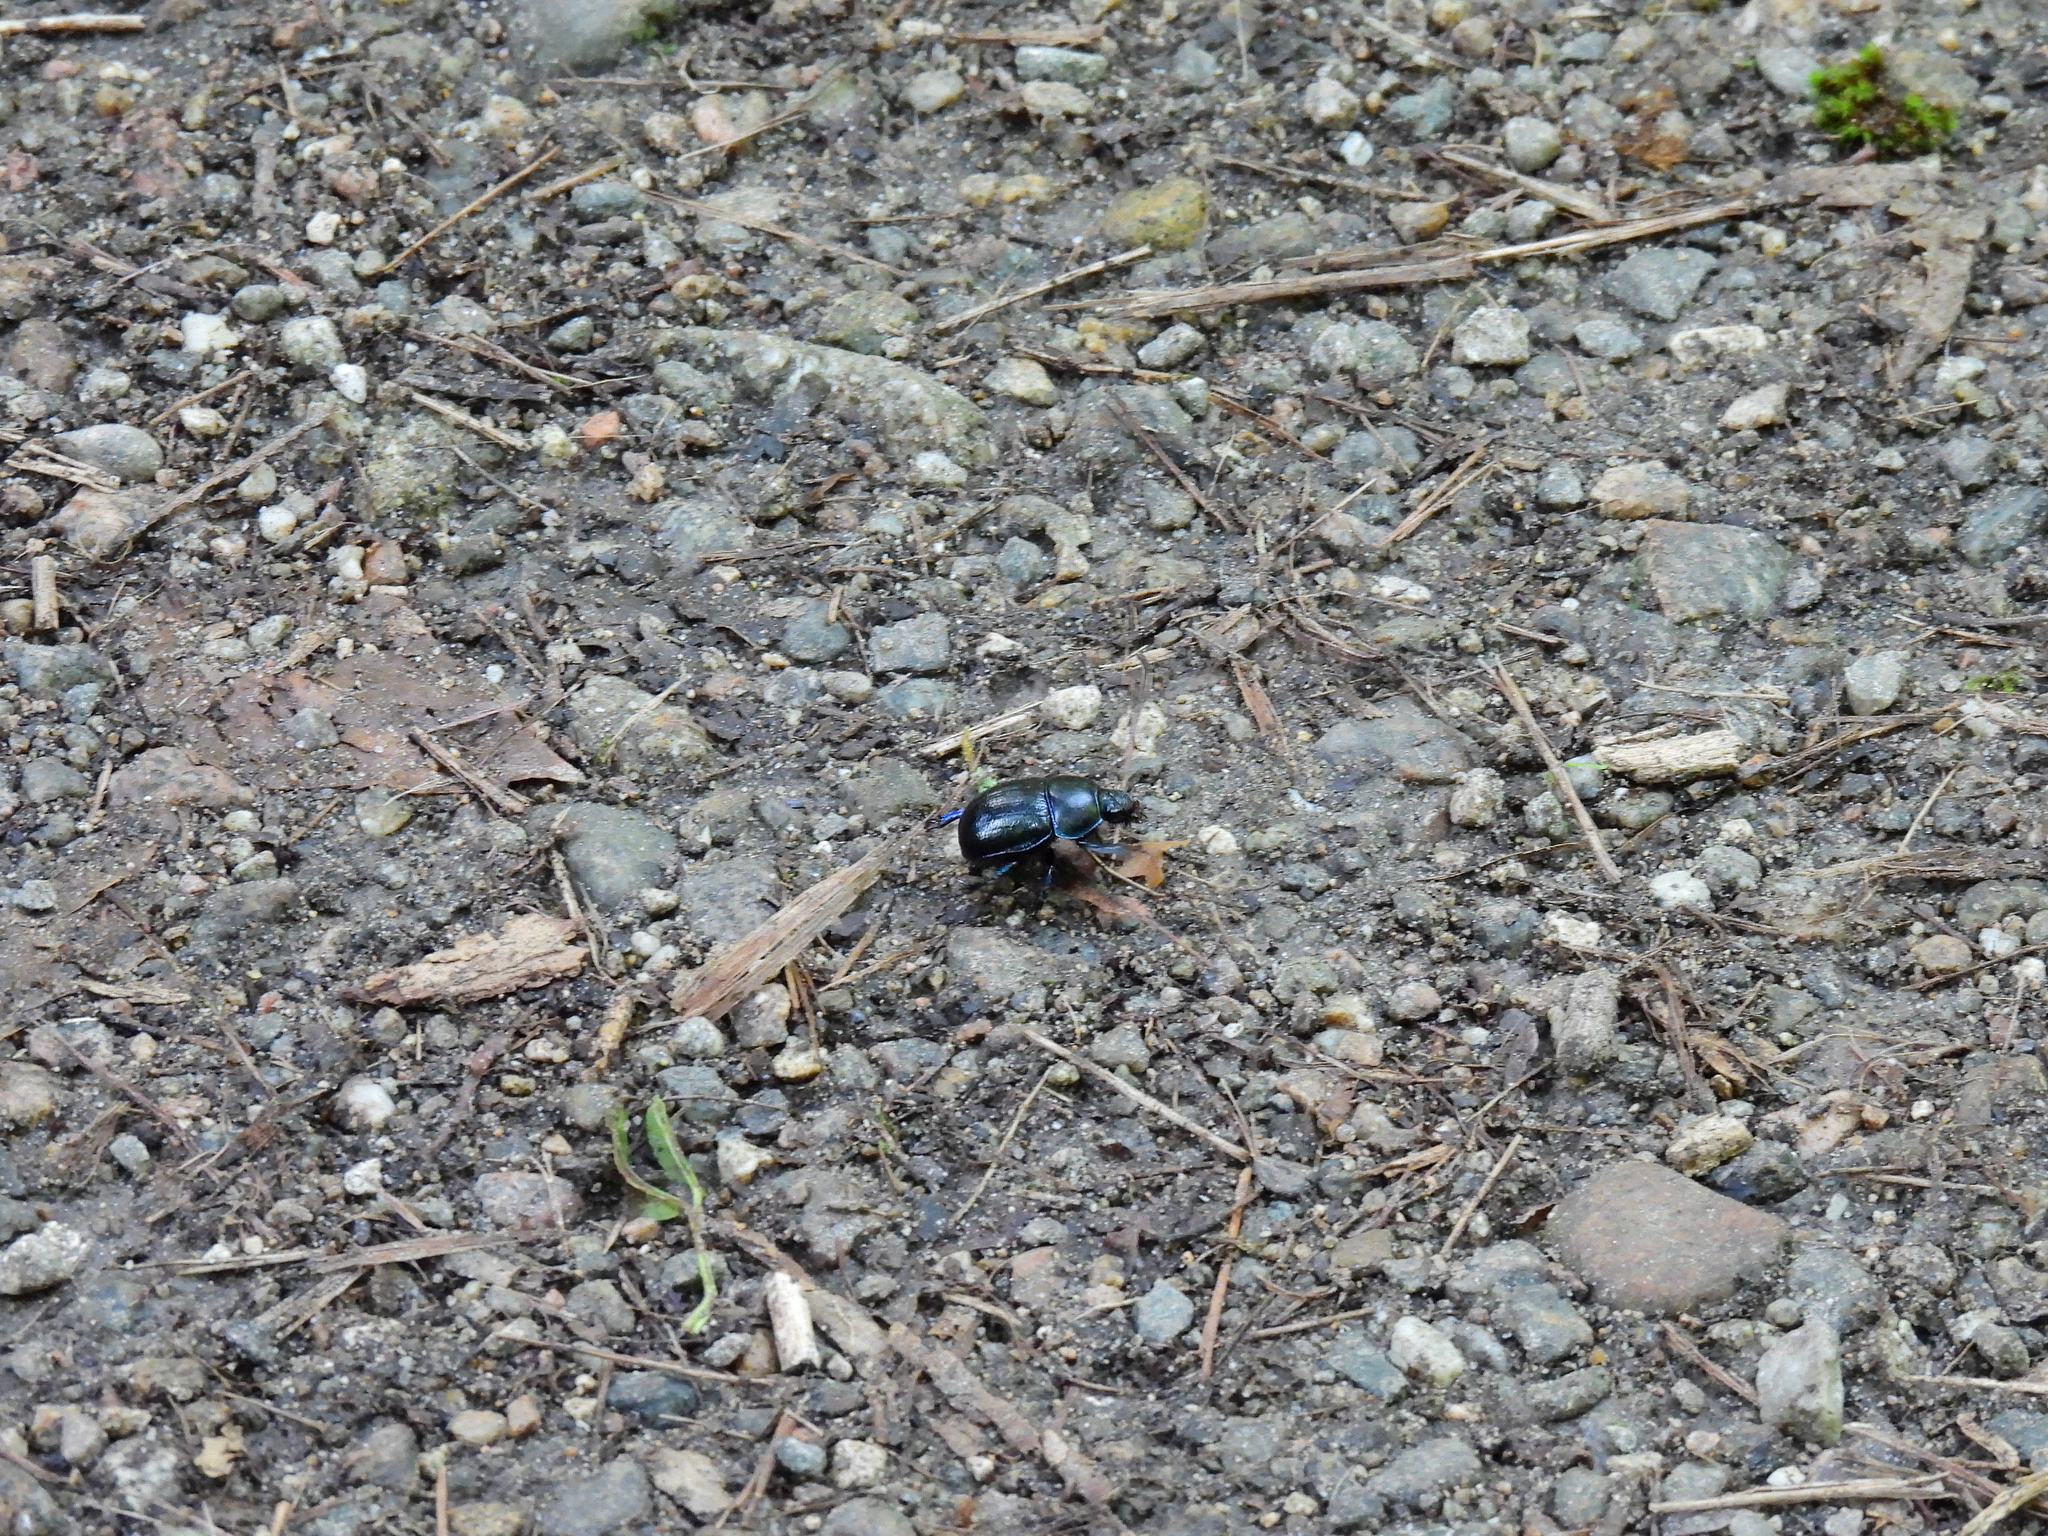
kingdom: Animalia
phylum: Arthropoda
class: Insecta
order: Coleoptera
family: Geotrupidae
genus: Anoplotrupes
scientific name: Anoplotrupes stercorosus
